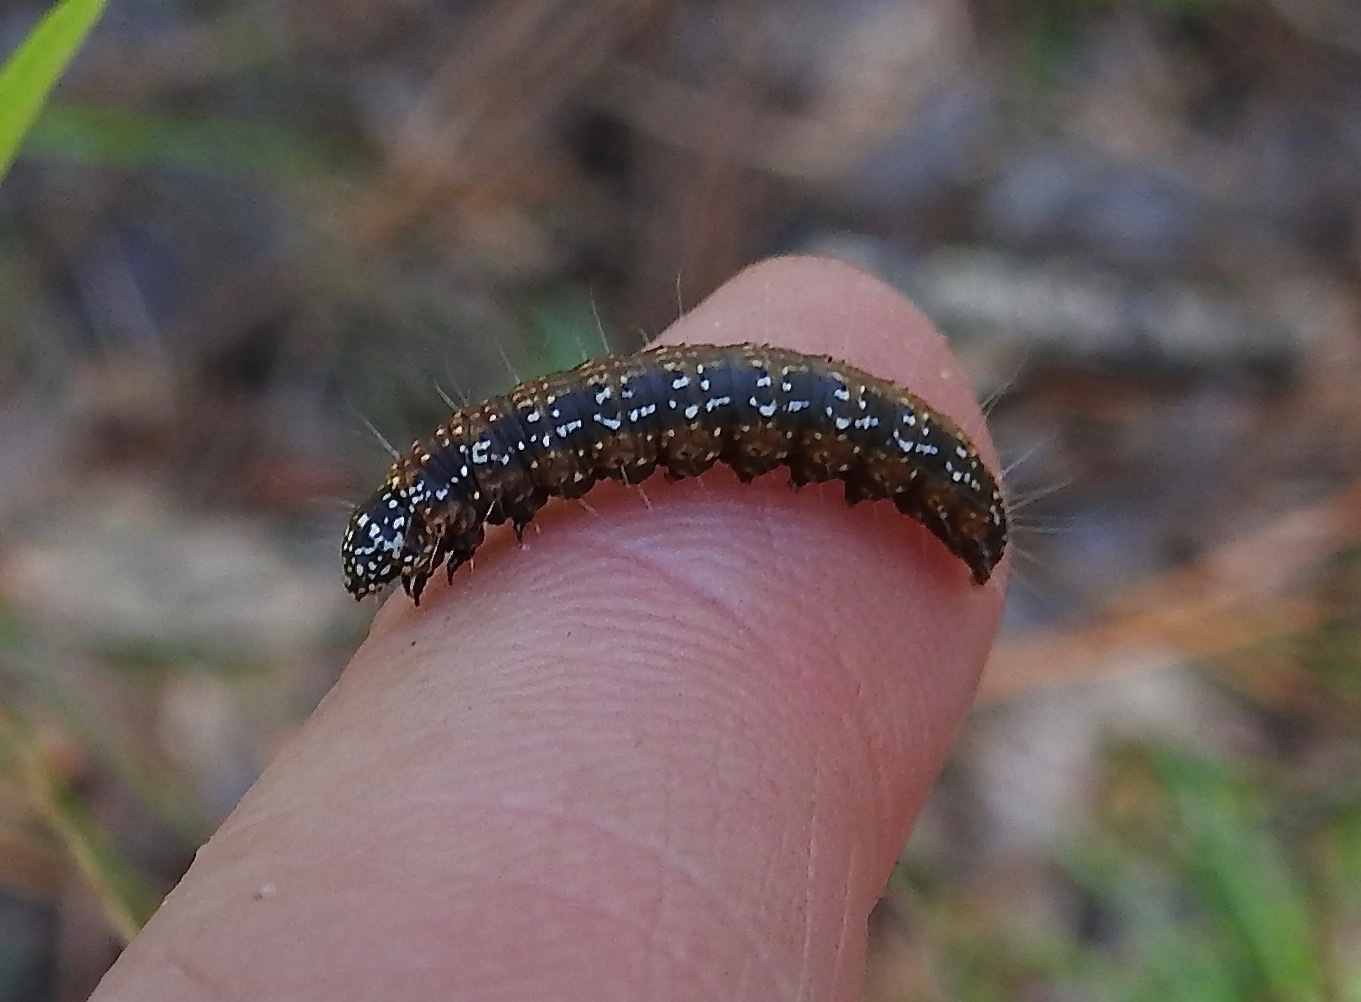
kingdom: Animalia
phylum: Arthropoda
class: Insecta
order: Lepidoptera
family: Pyralidae
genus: Omphalocera
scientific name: Omphalocera munroei
